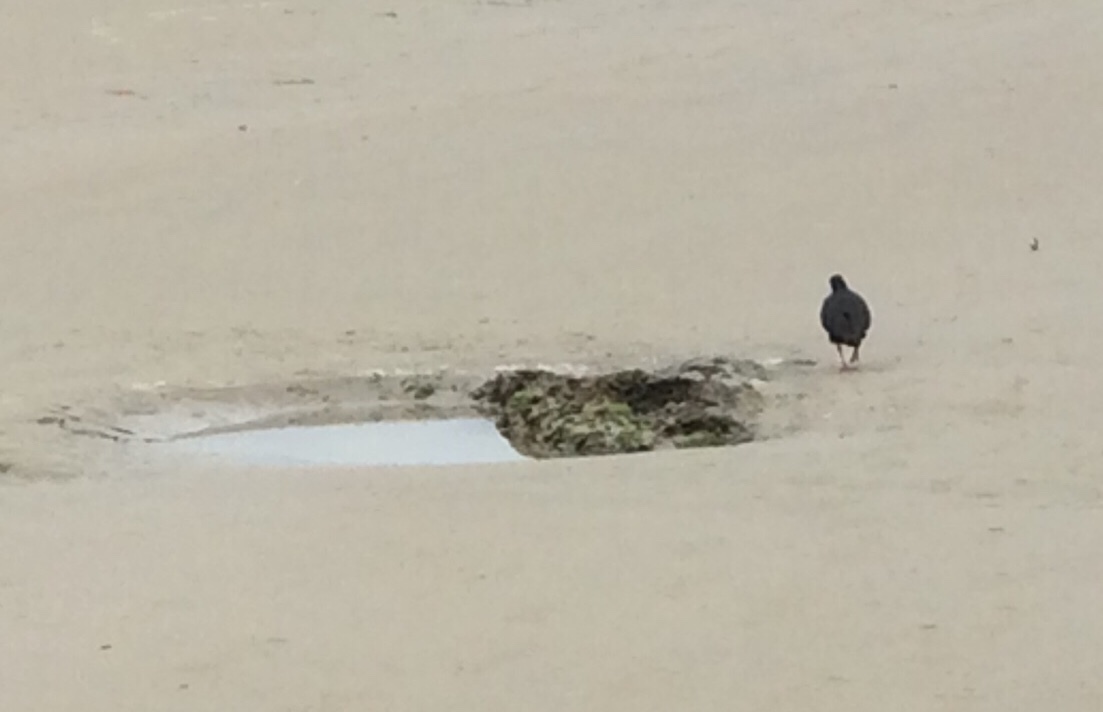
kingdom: Animalia
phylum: Chordata
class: Aves
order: Charadriiformes
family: Haematopodidae
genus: Haematopus
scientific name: Haematopus unicolor
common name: Variable oystercatcher
